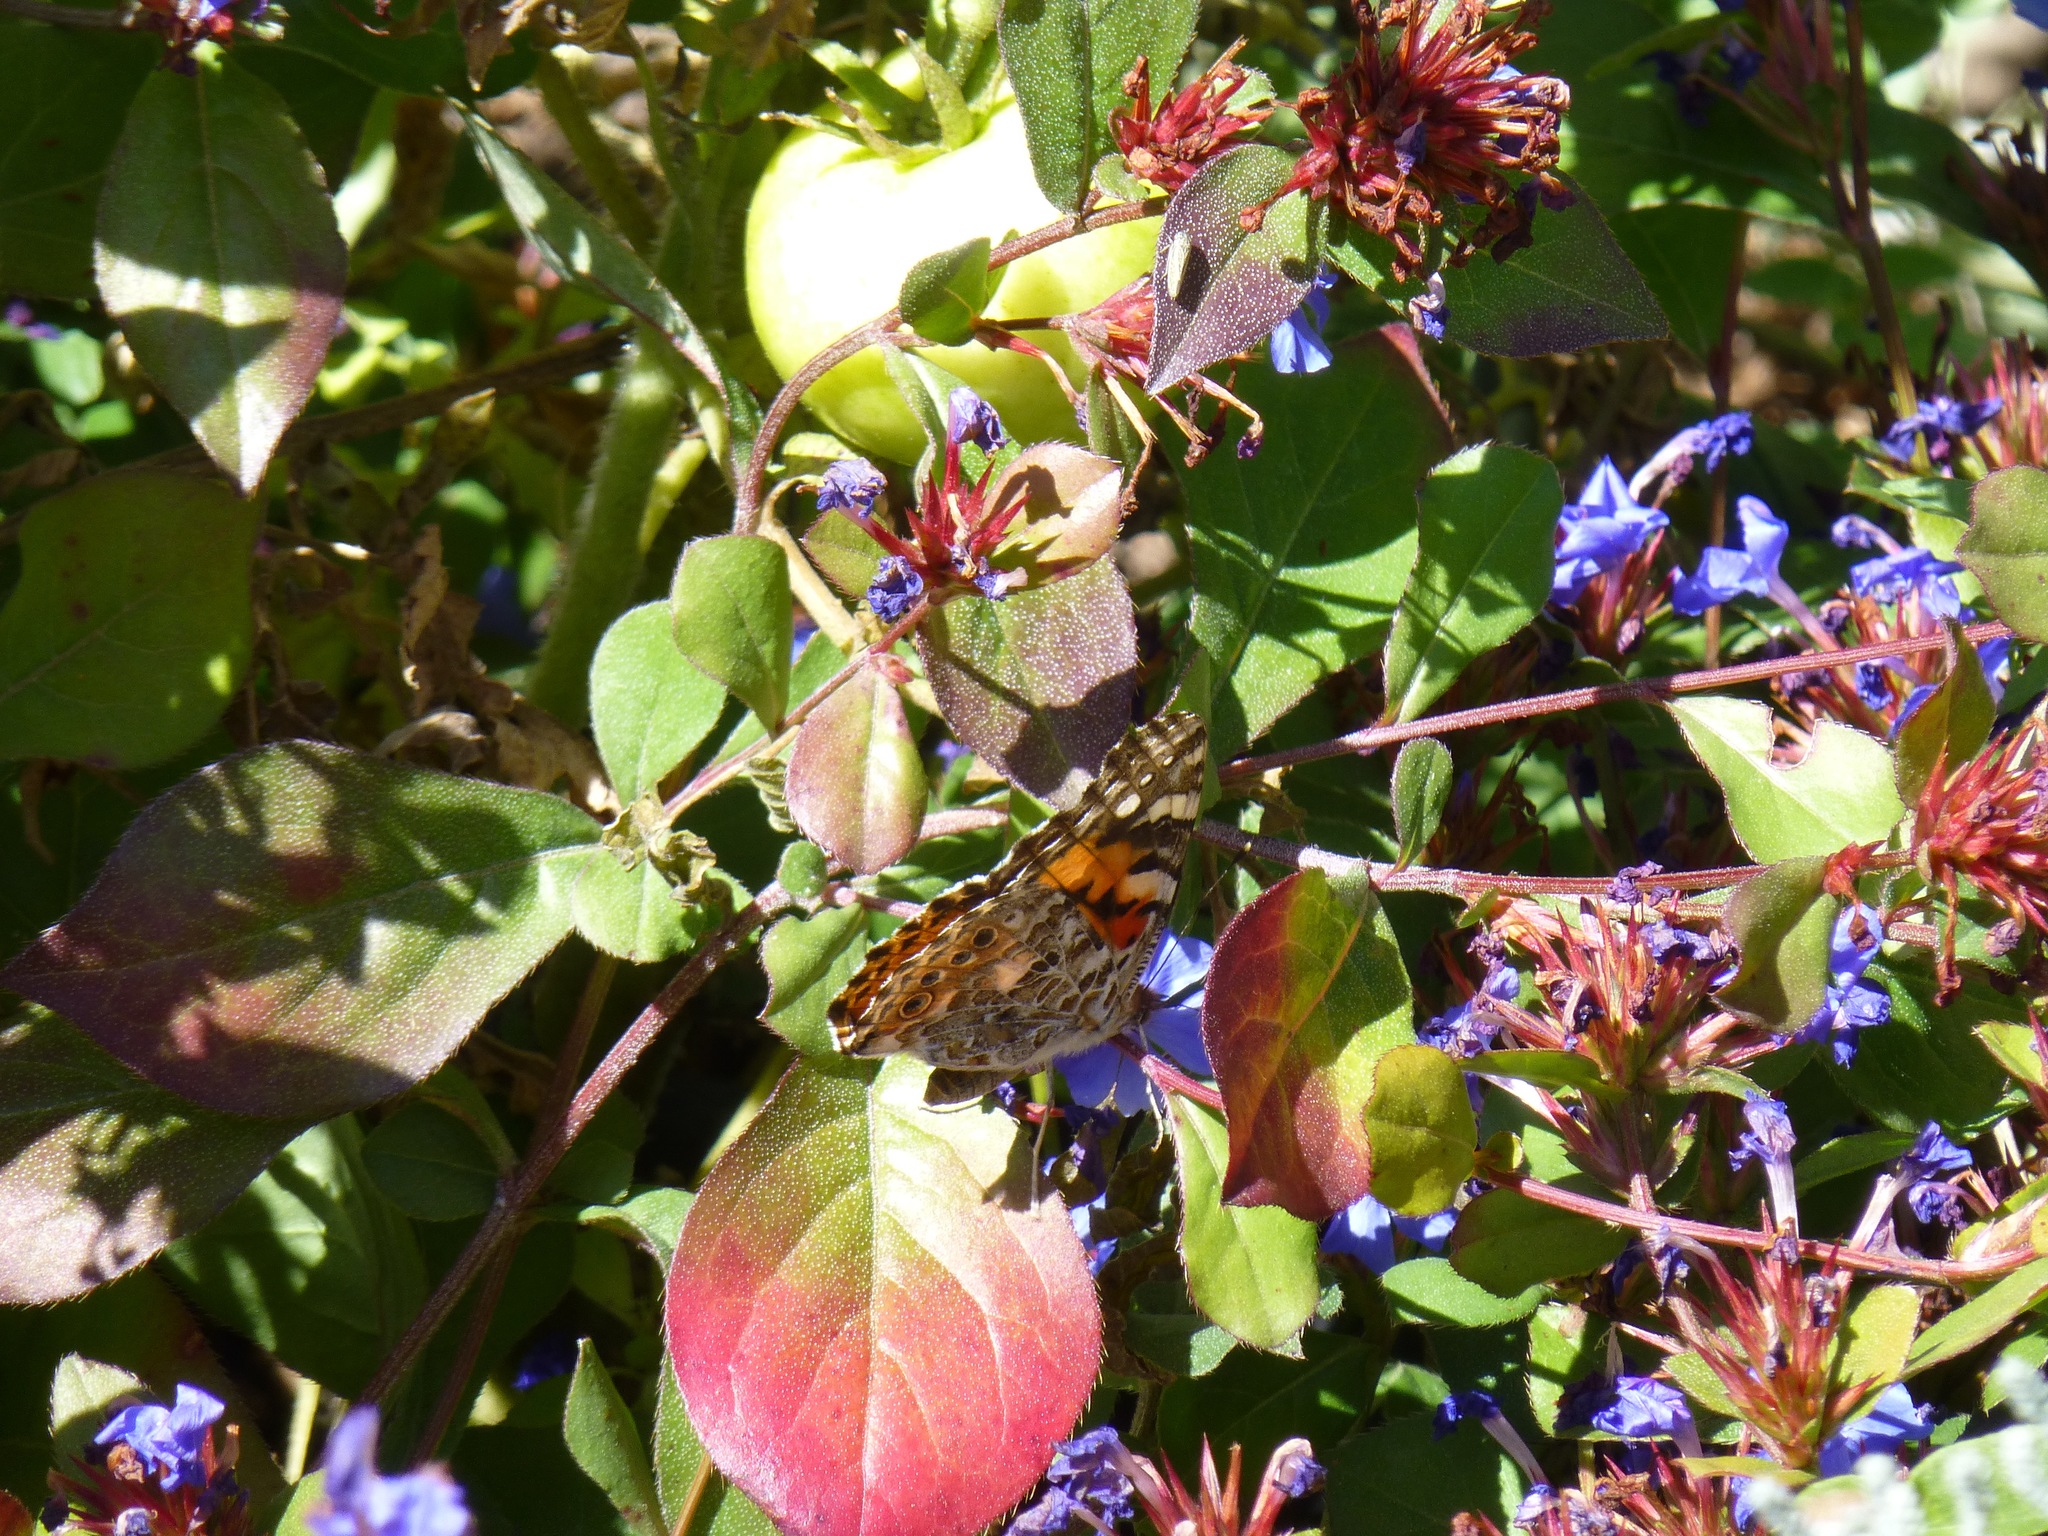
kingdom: Animalia
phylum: Arthropoda
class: Insecta
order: Lepidoptera
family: Nymphalidae
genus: Vanessa
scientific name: Vanessa cardui
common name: Painted lady
